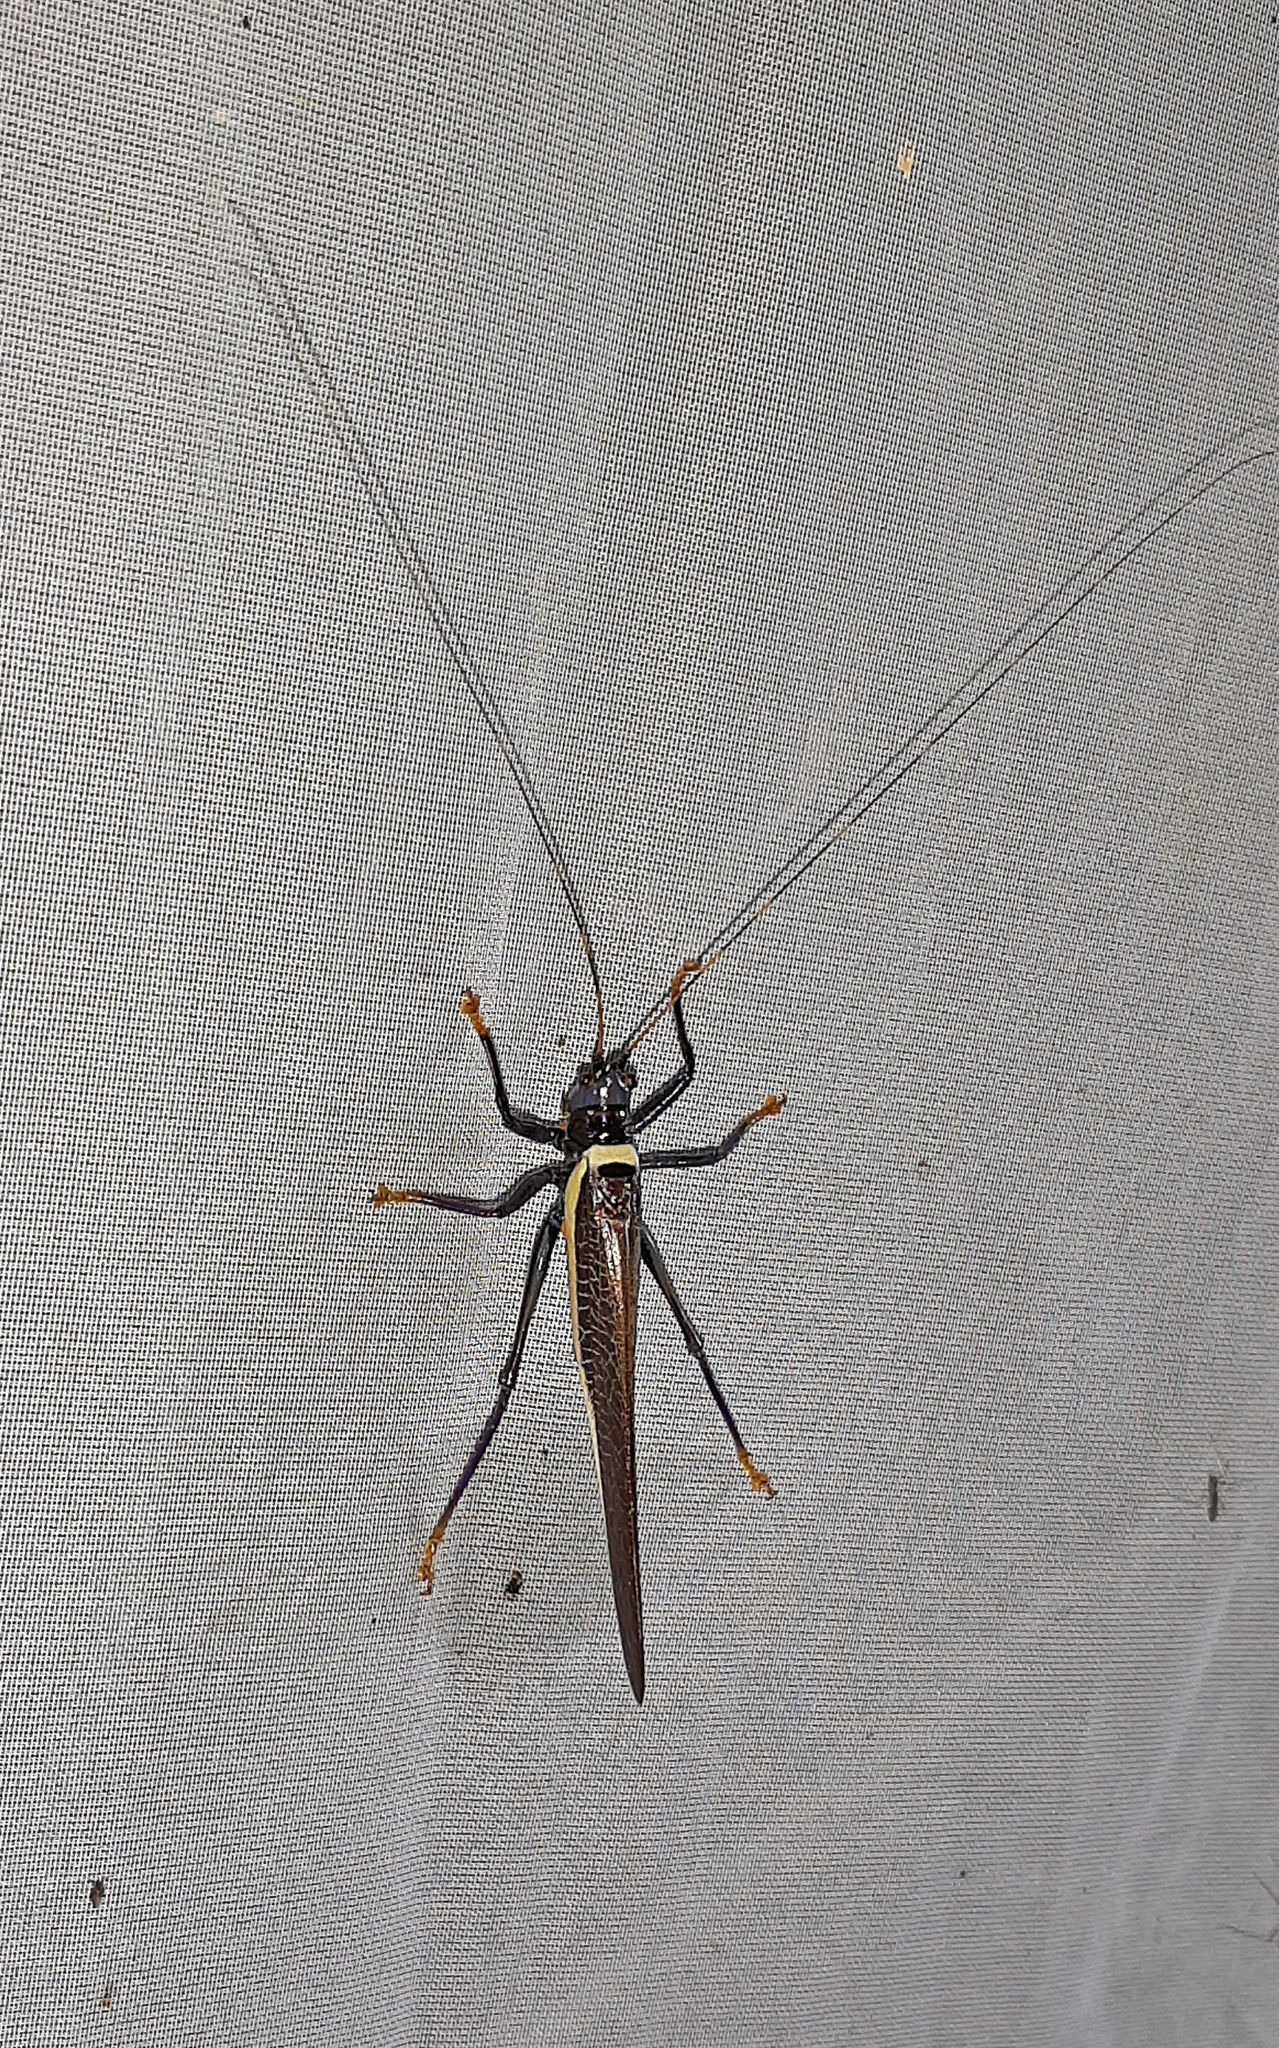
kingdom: Animalia
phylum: Arthropoda
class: Insecta
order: Orthoptera
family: Tettigoniidae
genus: Moncheca
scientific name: Moncheca elegans
